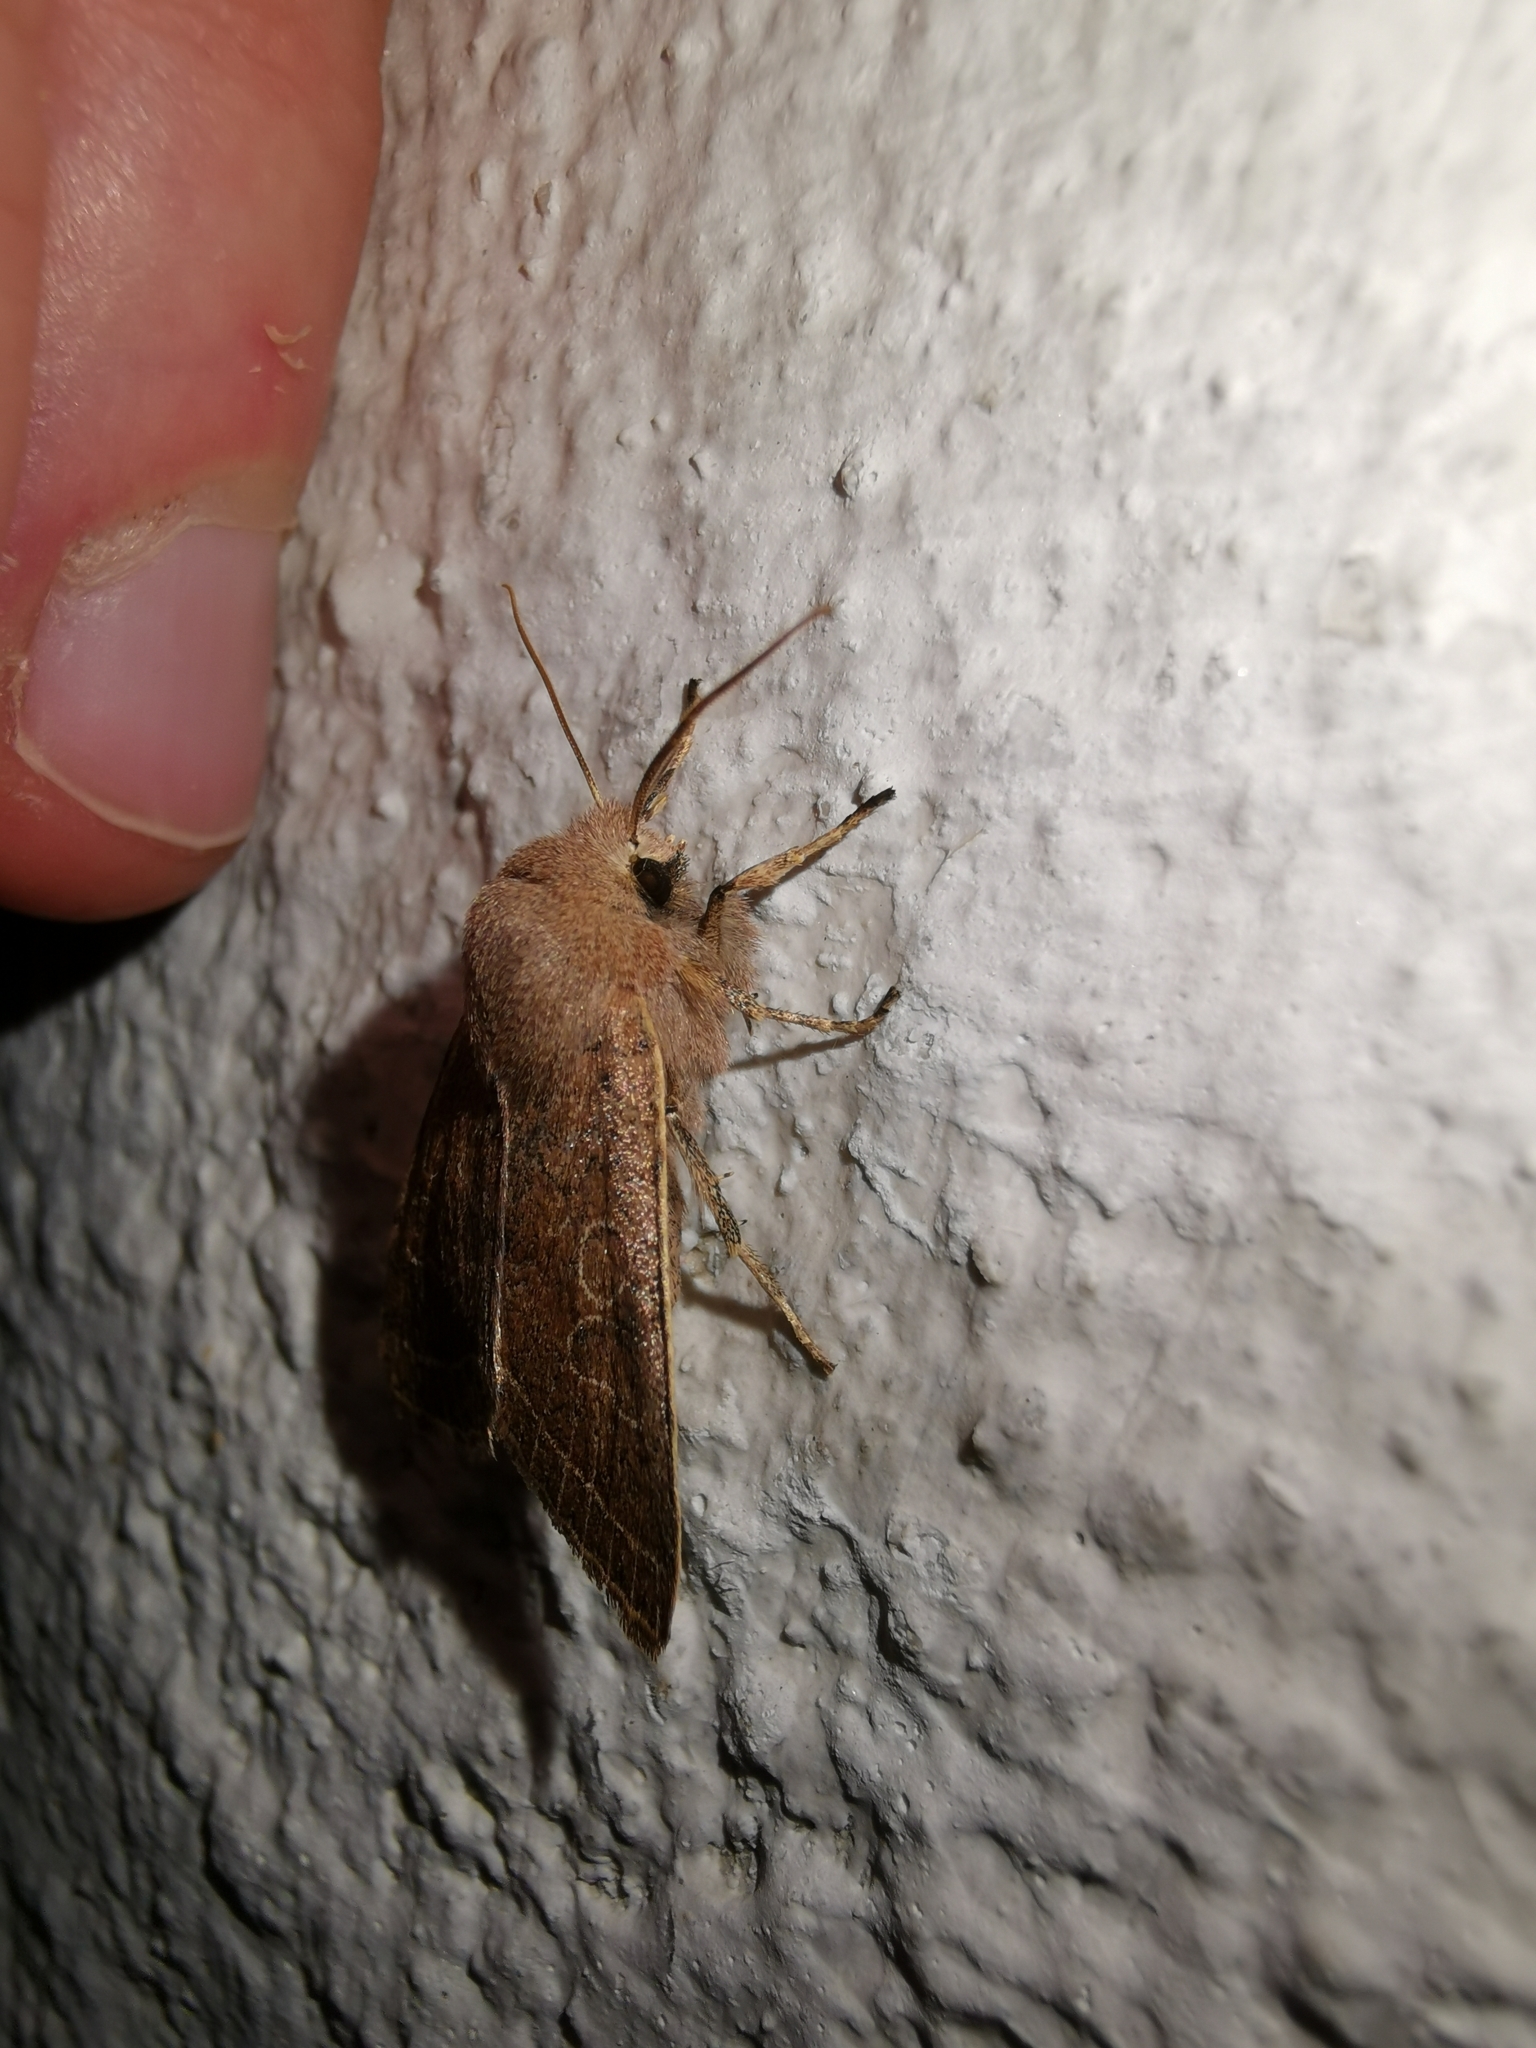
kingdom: Animalia
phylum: Arthropoda
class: Insecta
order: Lepidoptera
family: Noctuidae
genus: Orthosia
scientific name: Orthosia cerasi
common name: Common quaker
